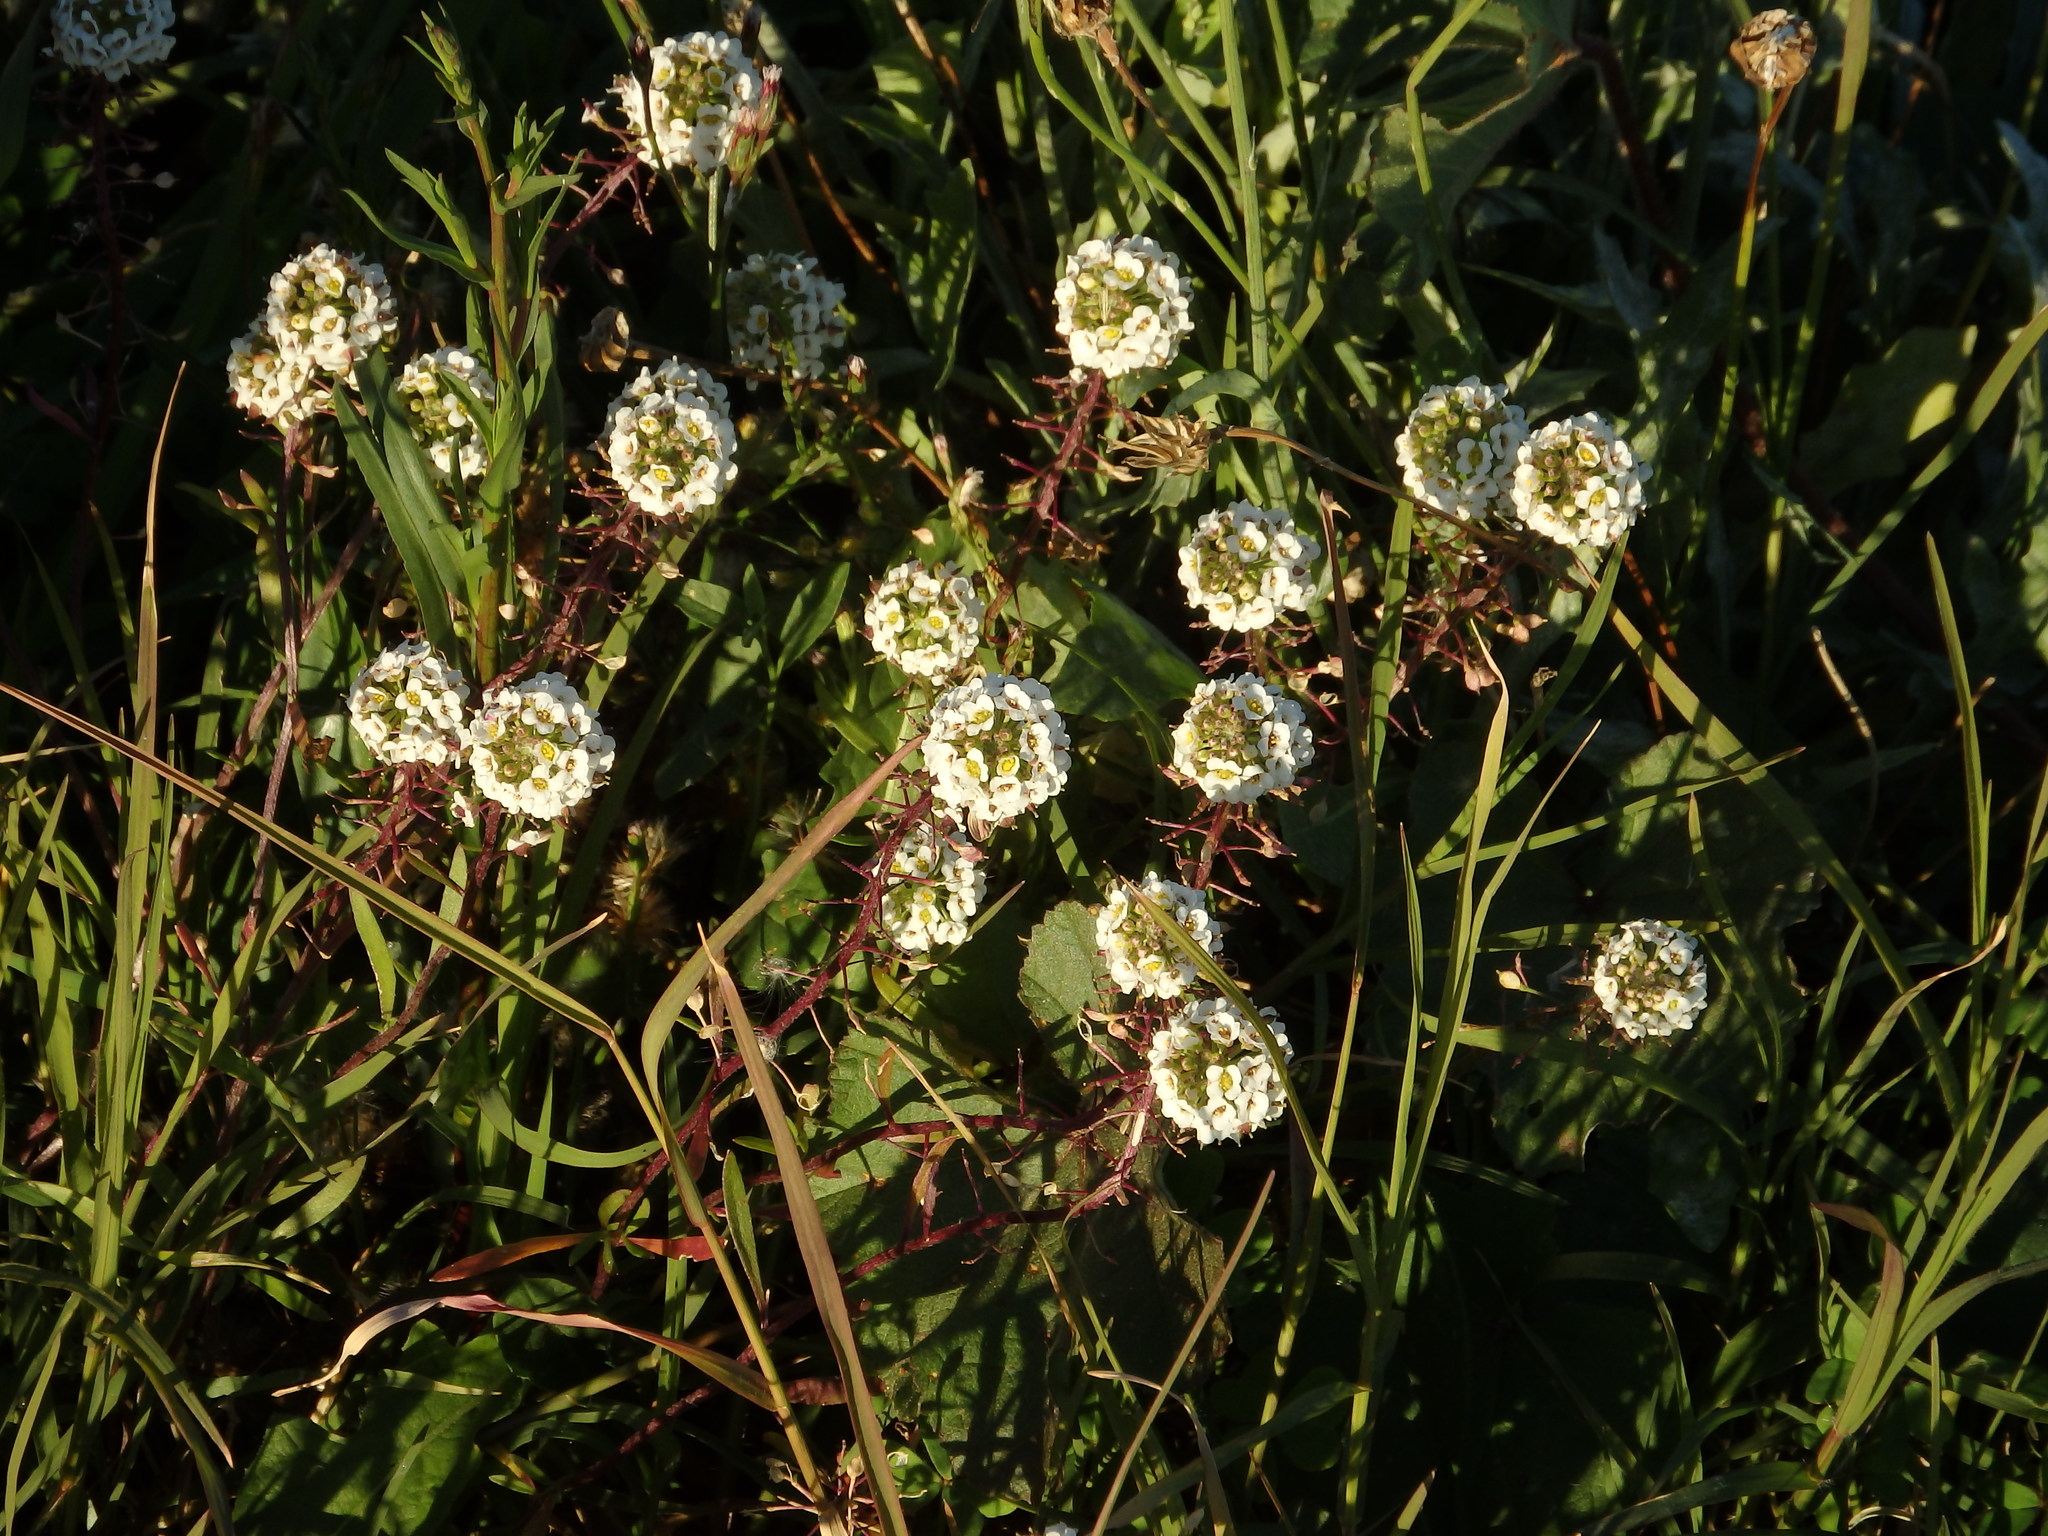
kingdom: Plantae
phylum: Tracheophyta
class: Magnoliopsida
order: Brassicales
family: Brassicaceae
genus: Lobularia
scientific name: Lobularia maritima
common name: Sweet alison
